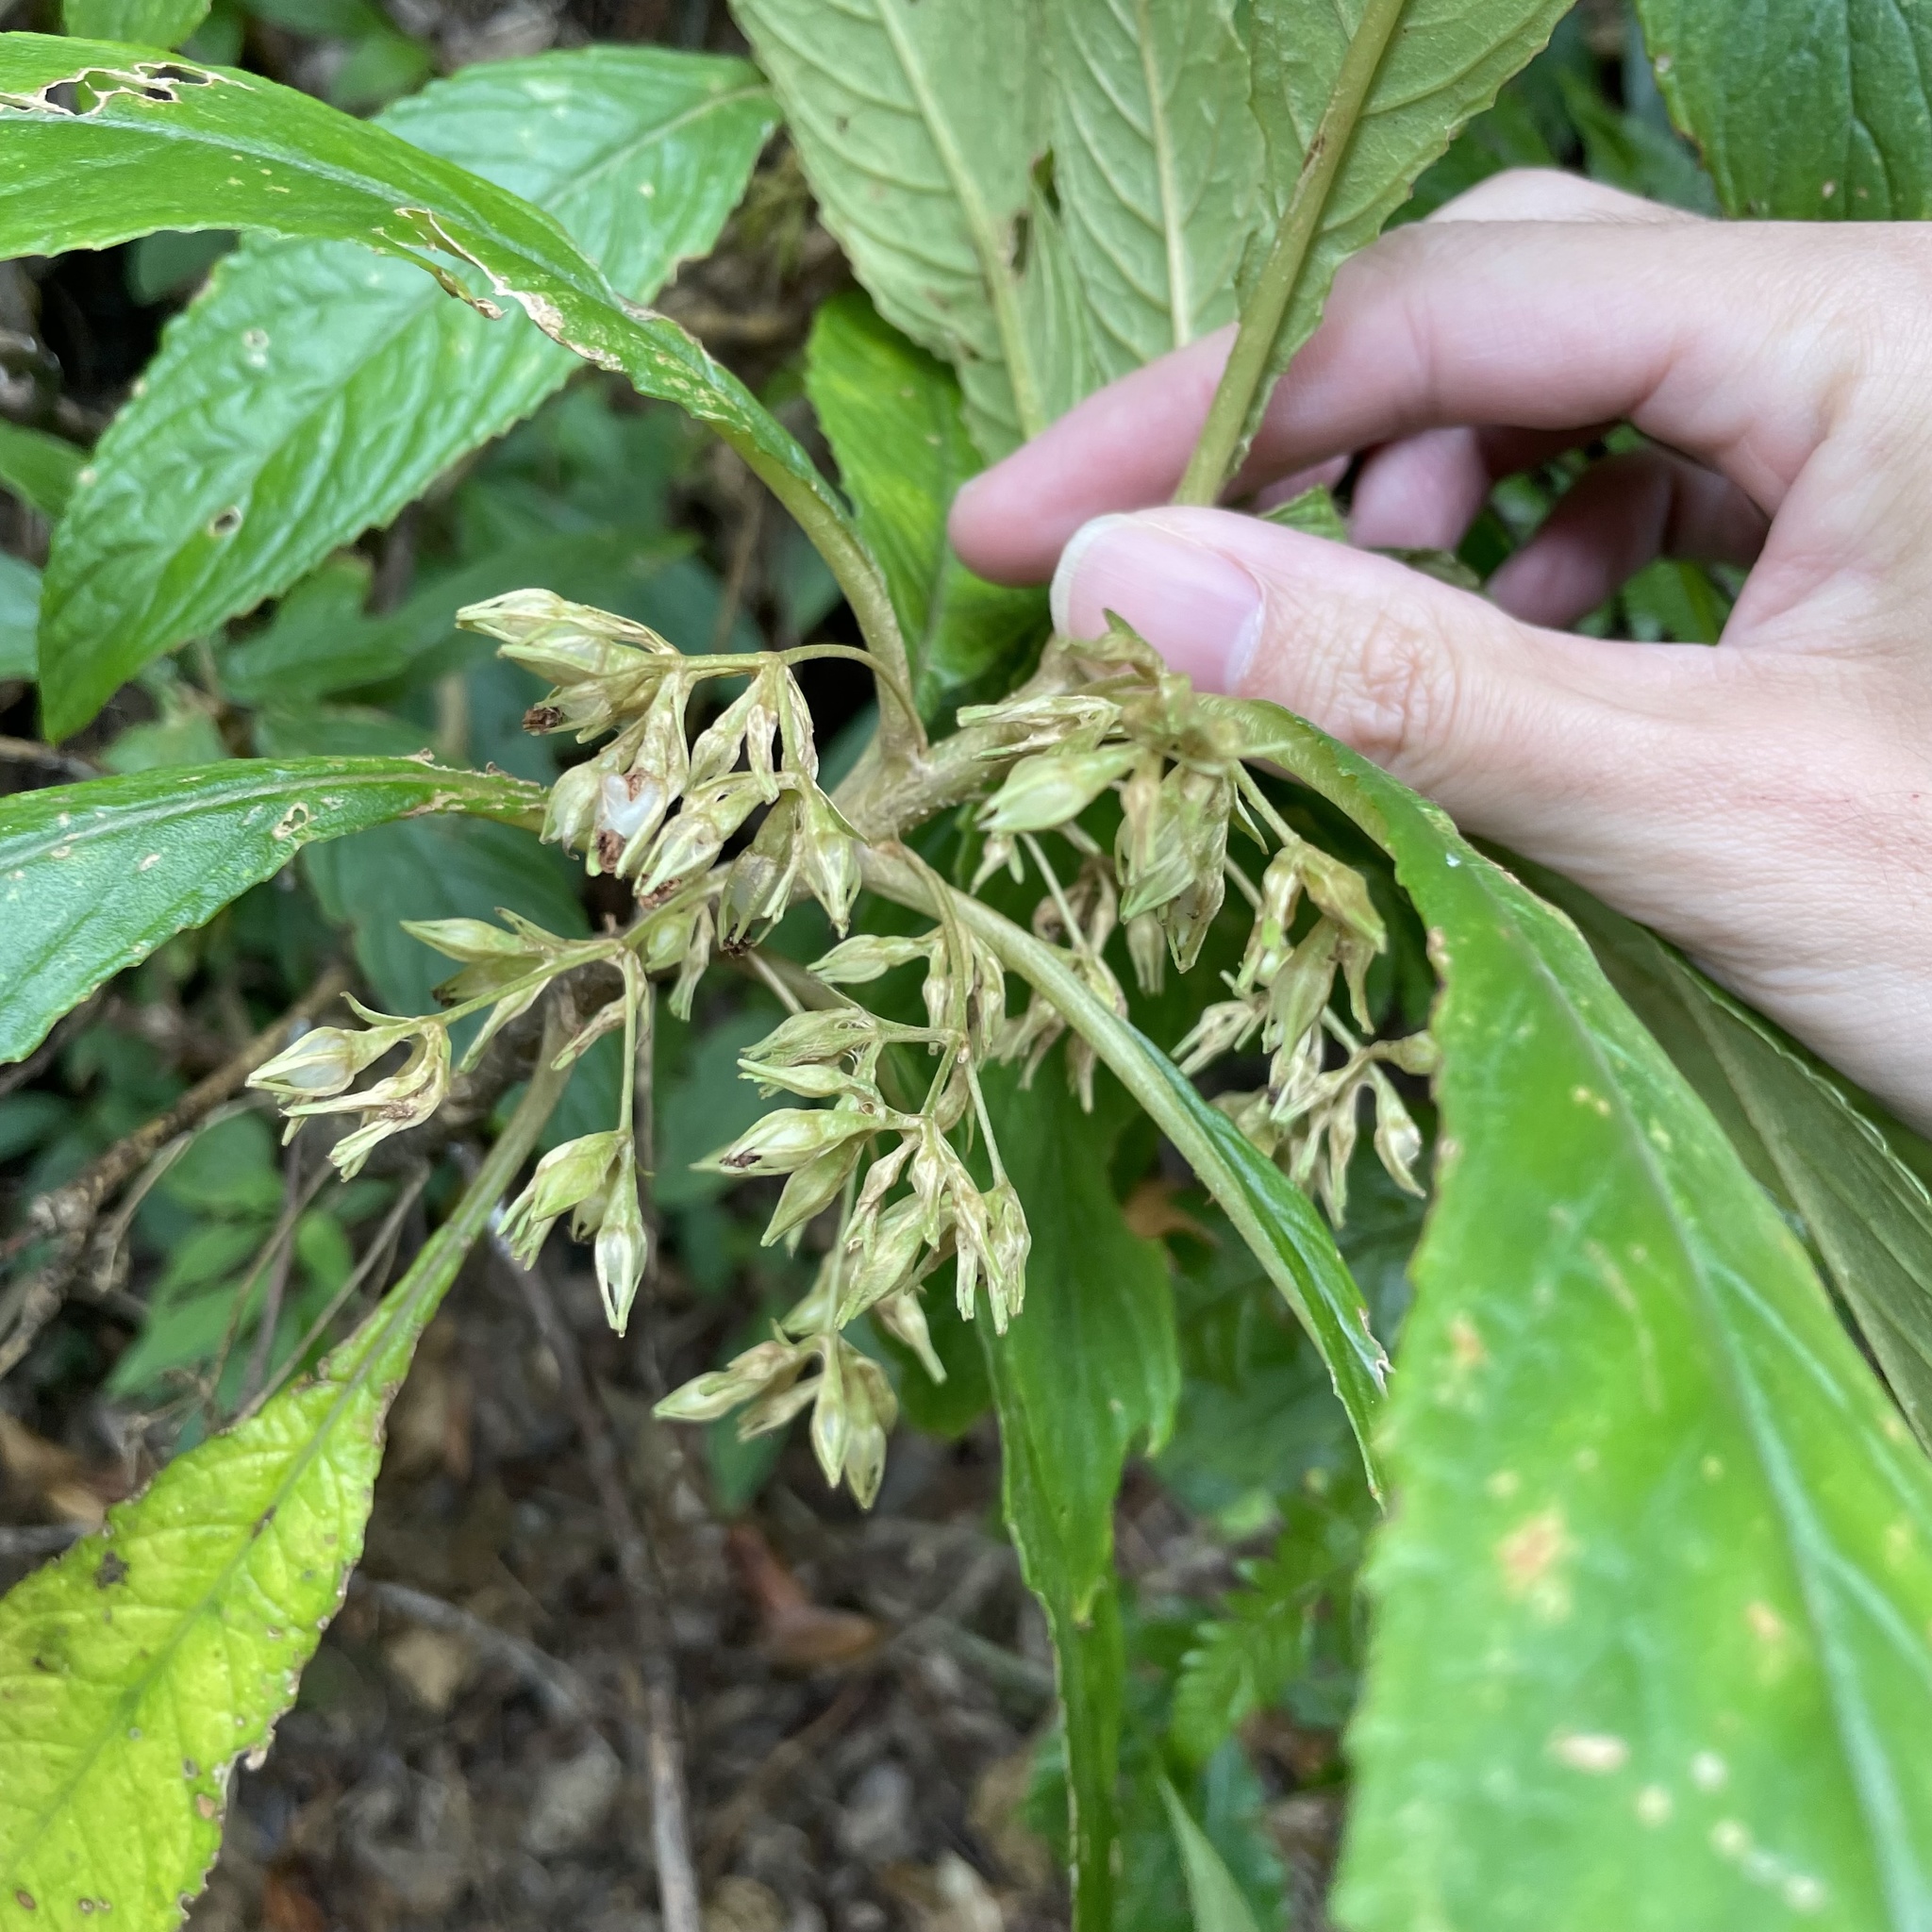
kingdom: Plantae
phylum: Tracheophyta
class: Magnoliopsida
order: Lamiales
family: Gesneriaceae
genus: Rhynchotechum
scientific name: Rhynchotechum discolor
